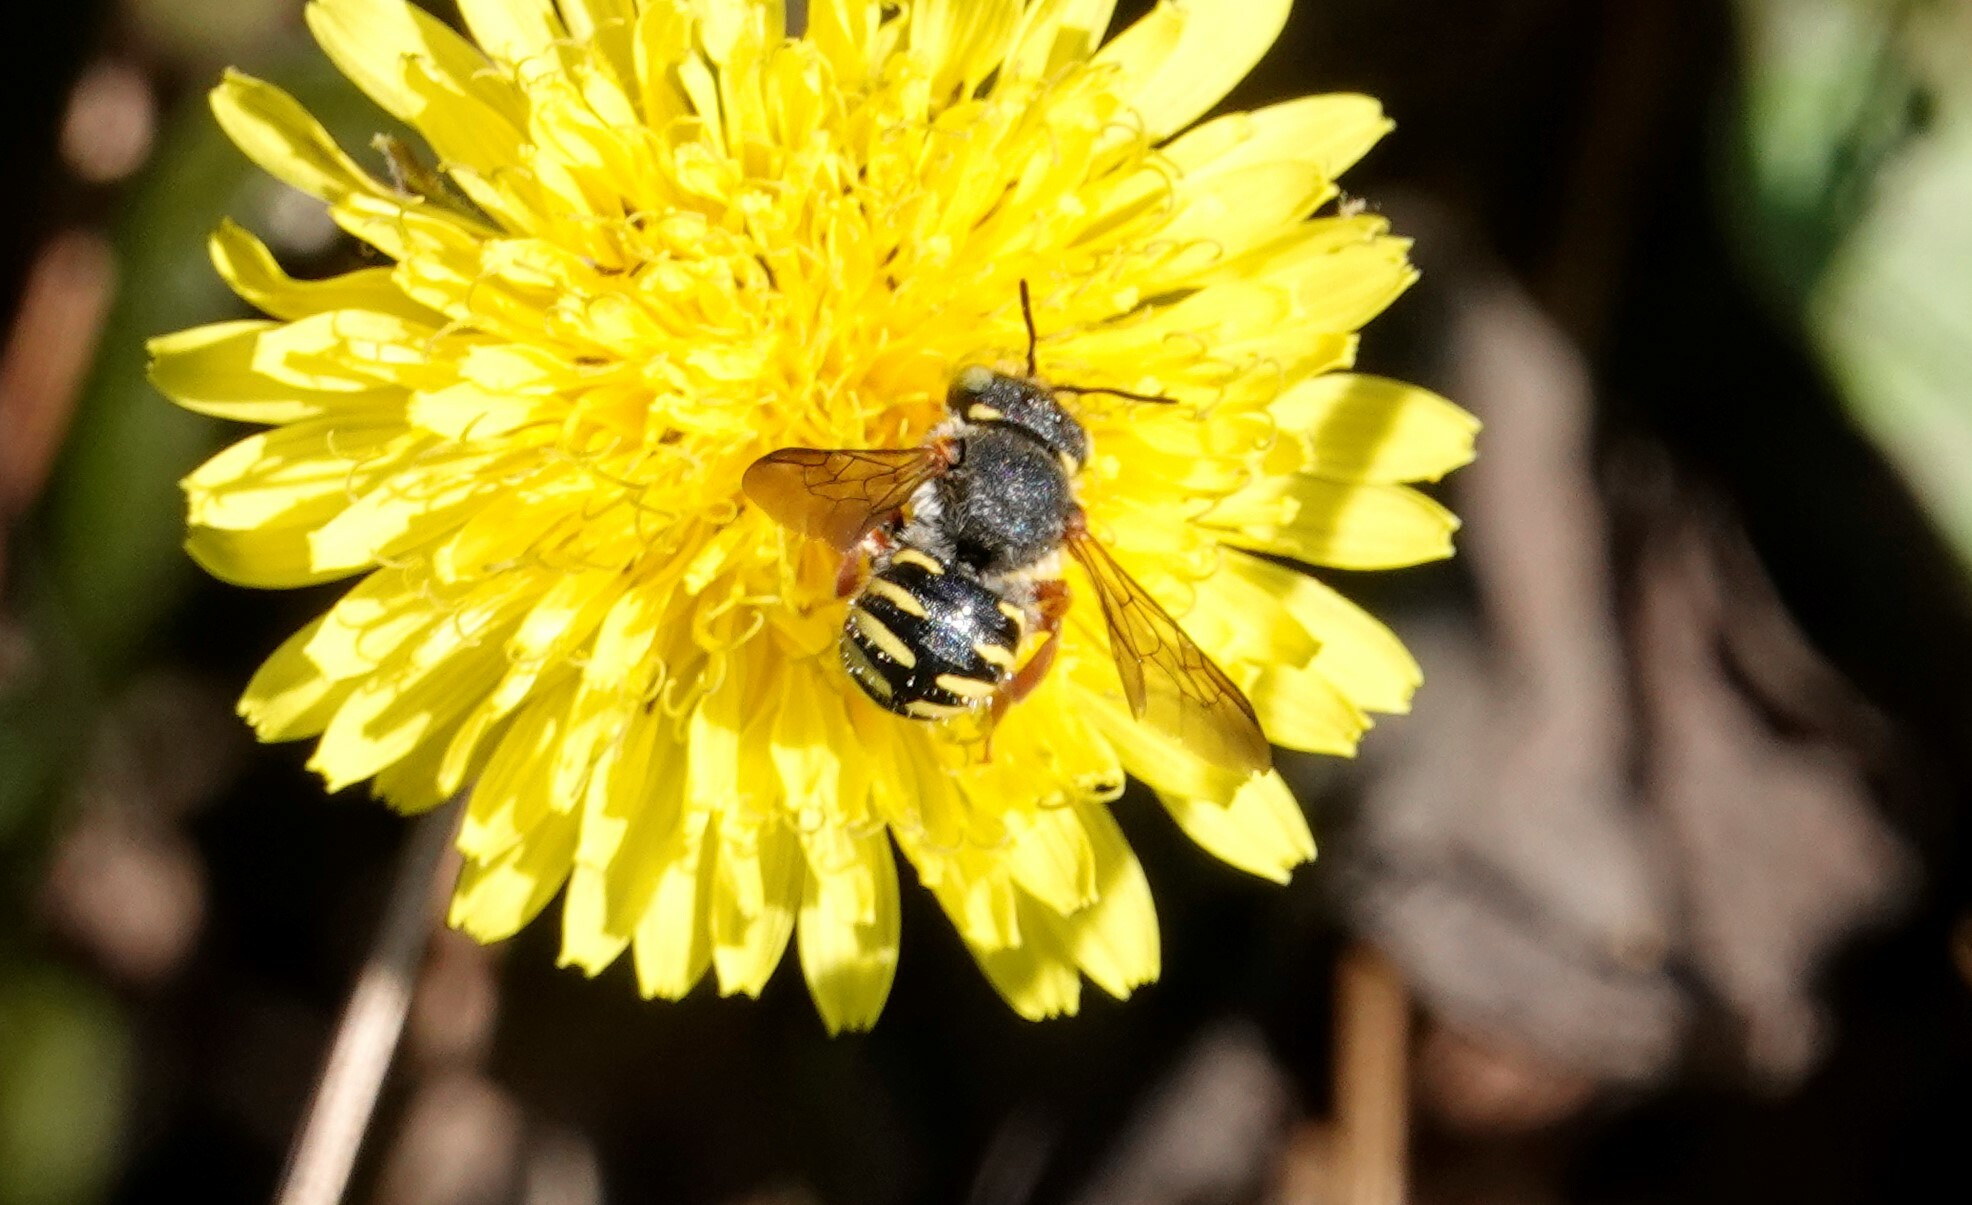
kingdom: Animalia
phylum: Arthropoda
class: Insecta
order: Hymenoptera
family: Megachilidae
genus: Anthidium
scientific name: Anthidium oblongatum
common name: Oblong wool carder bee
